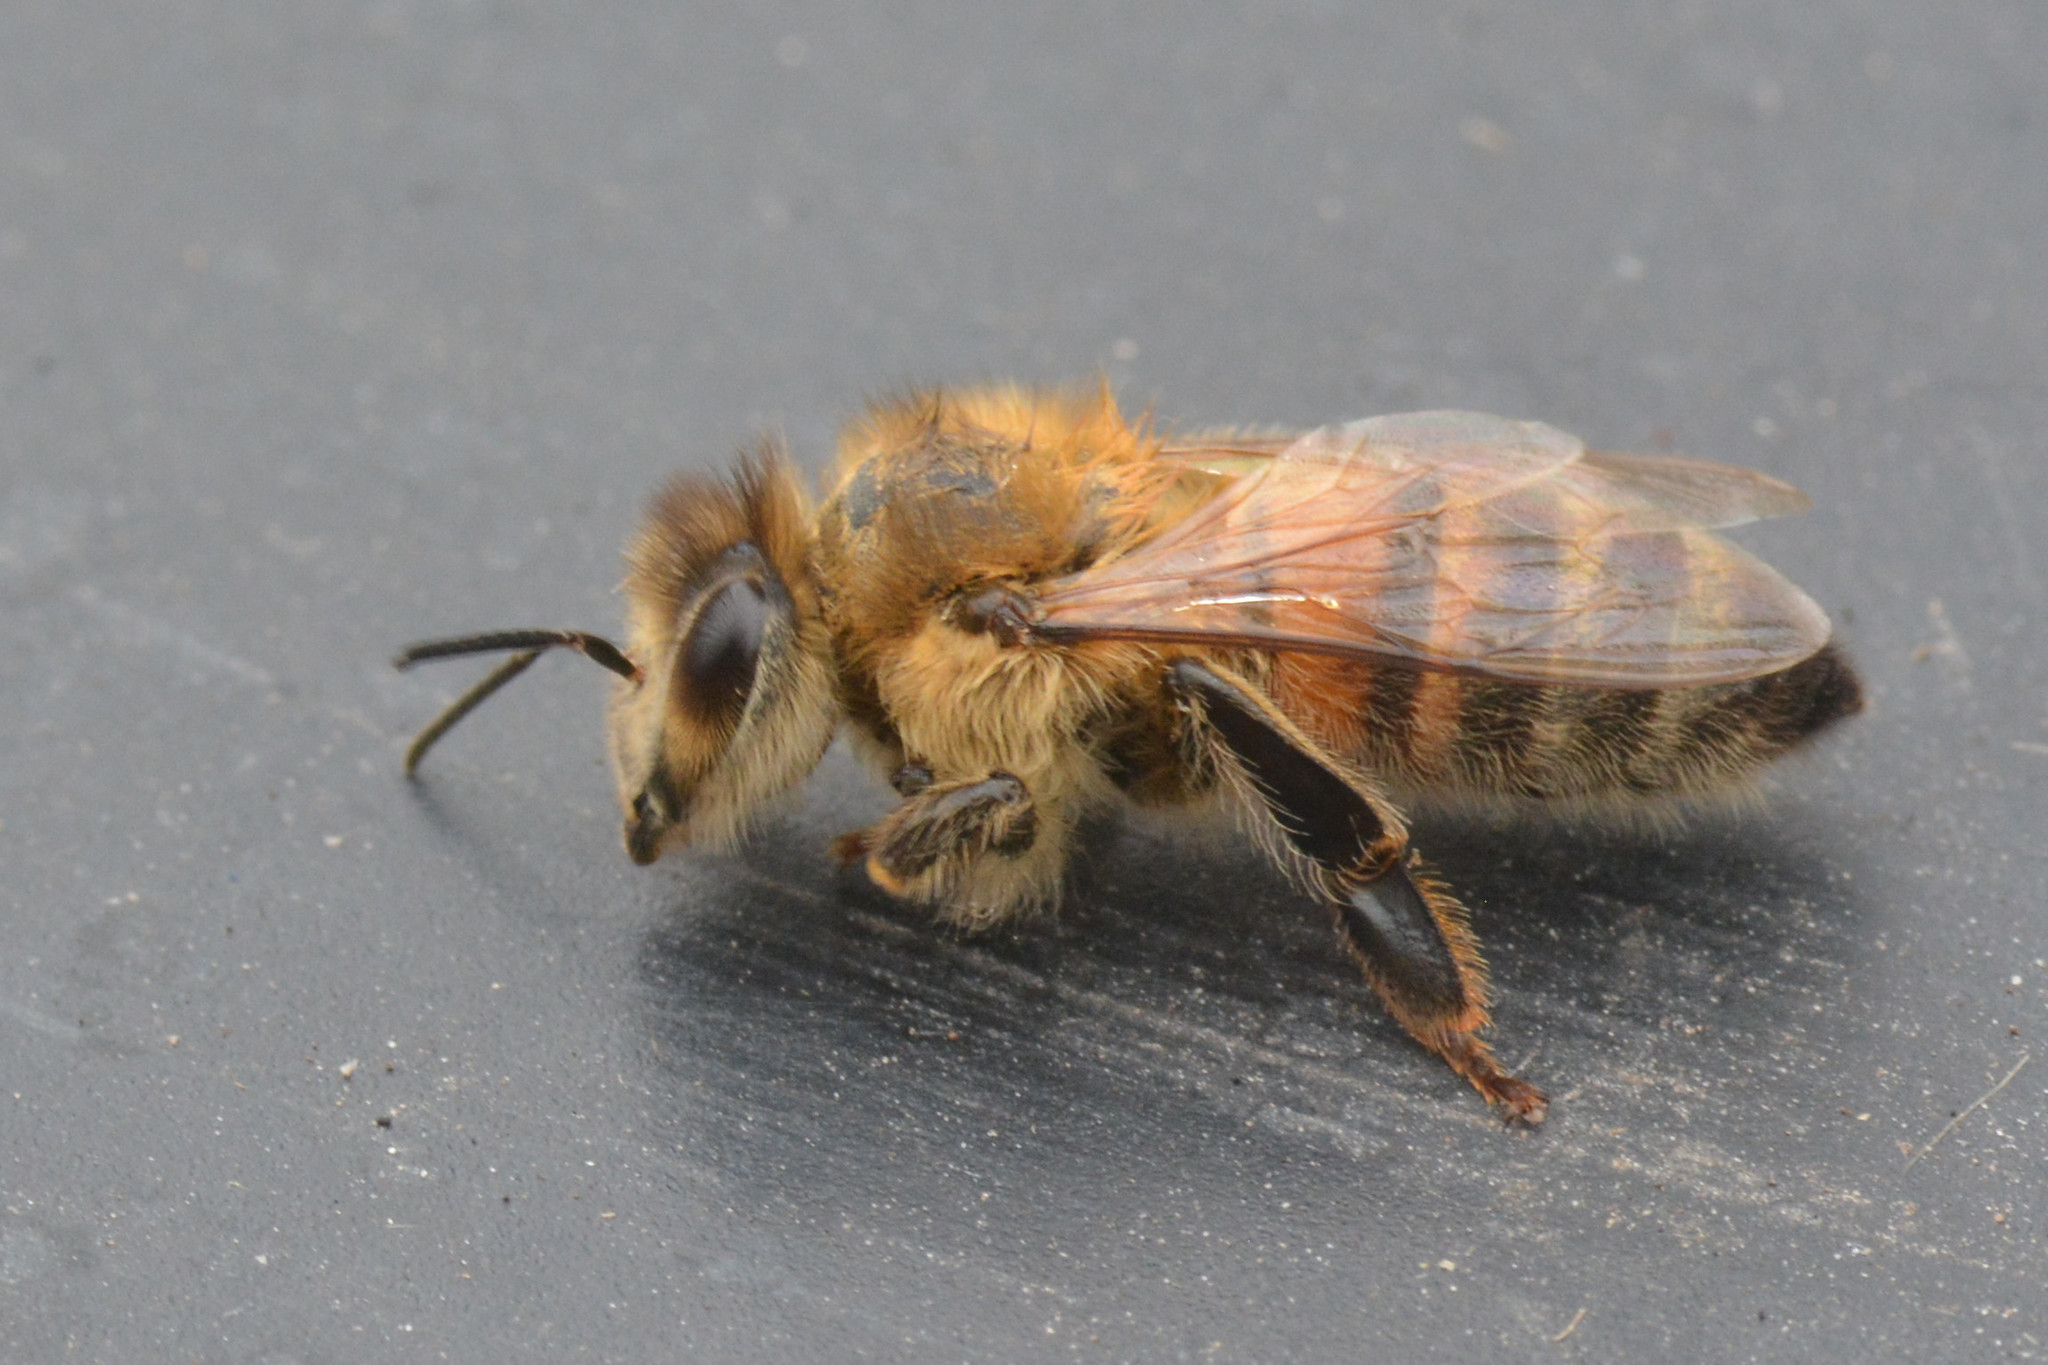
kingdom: Animalia
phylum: Arthropoda
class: Insecta
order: Hymenoptera
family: Apidae
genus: Apis
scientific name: Apis mellifera
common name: Honey bee
